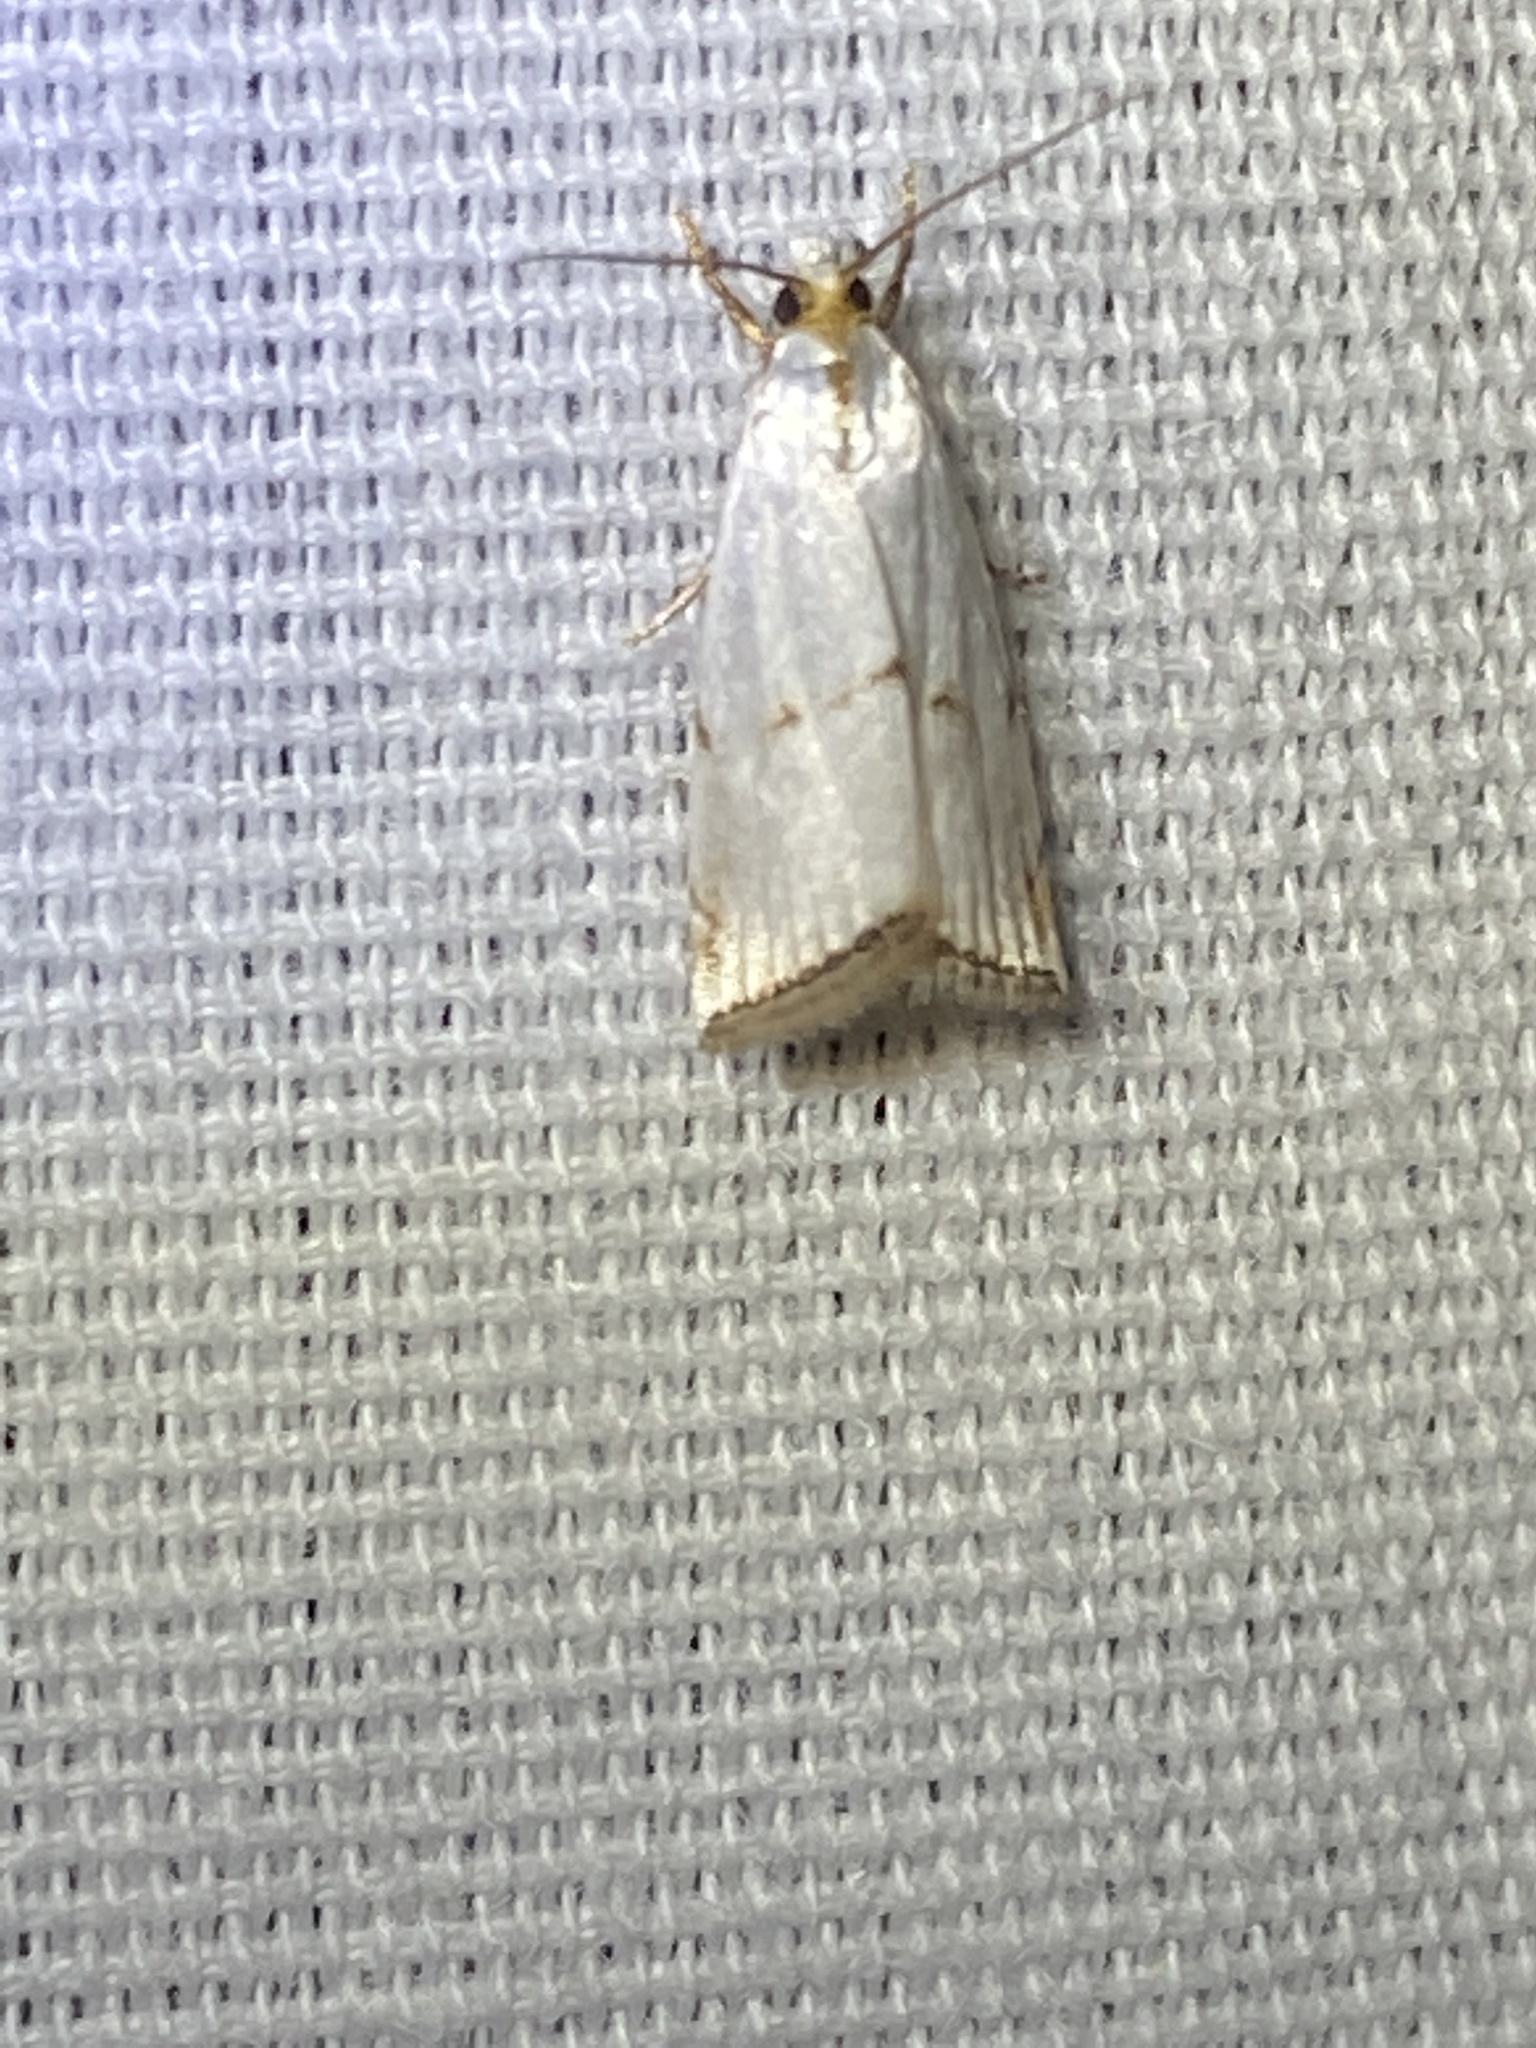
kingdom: Animalia
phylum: Arthropoda
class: Insecta
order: Lepidoptera
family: Crambidae
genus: Argyria
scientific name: Argyria pusillalis
